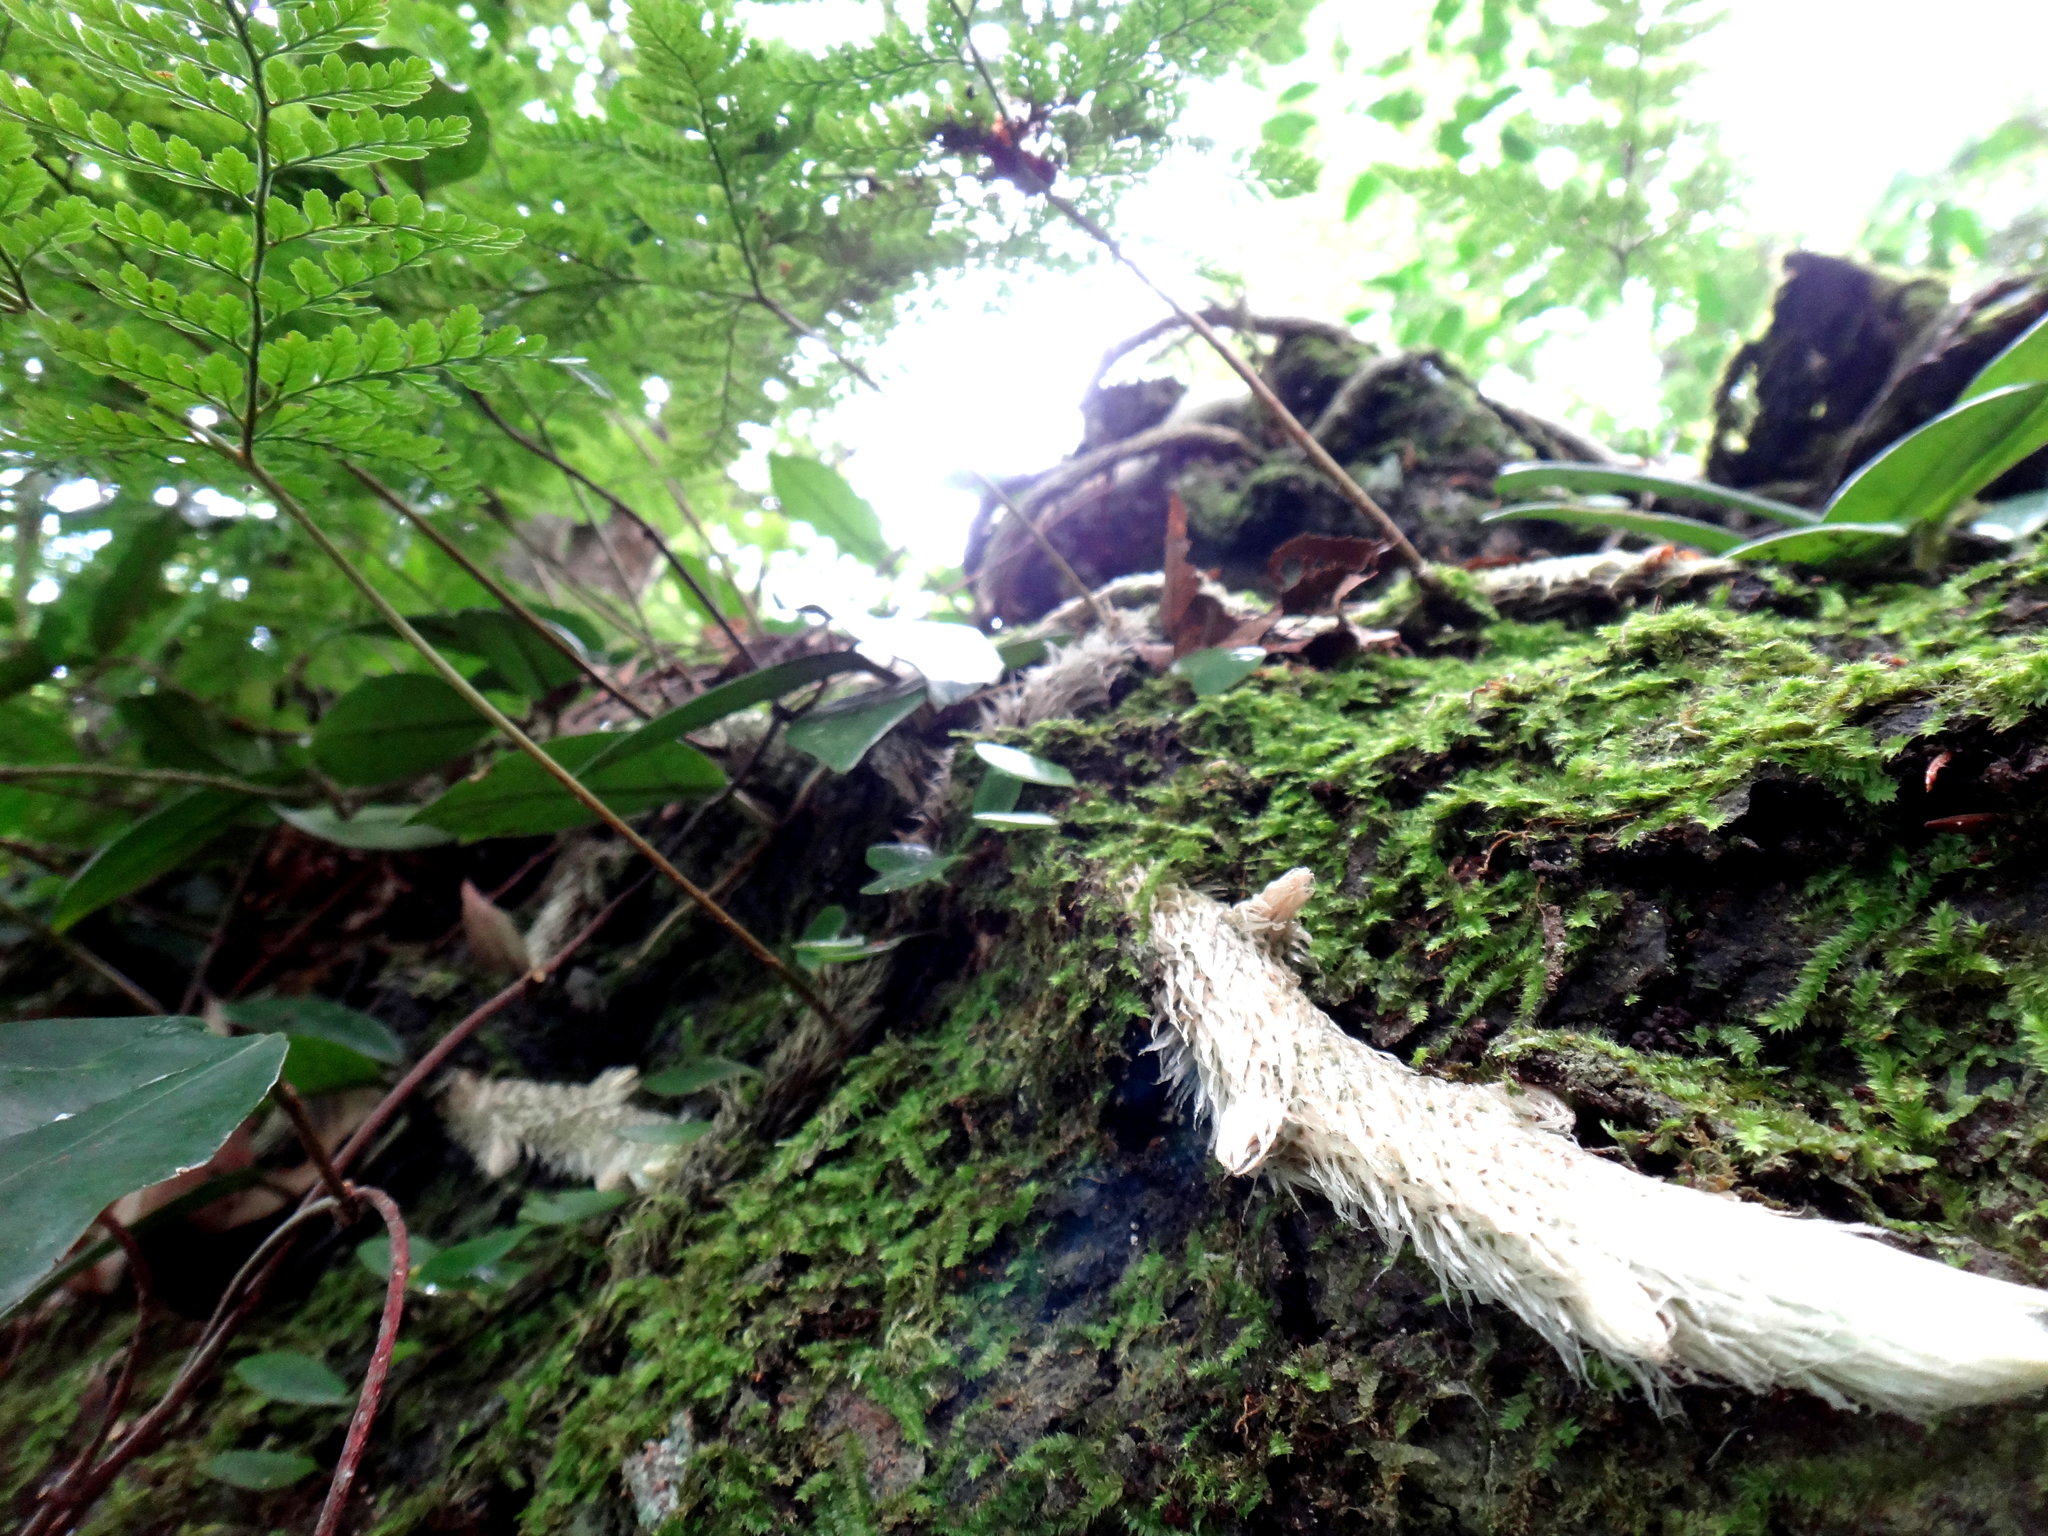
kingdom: Plantae
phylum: Tracheophyta
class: Polypodiopsida
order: Polypodiales
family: Davalliaceae
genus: Davallia
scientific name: Davallia griffithiana
